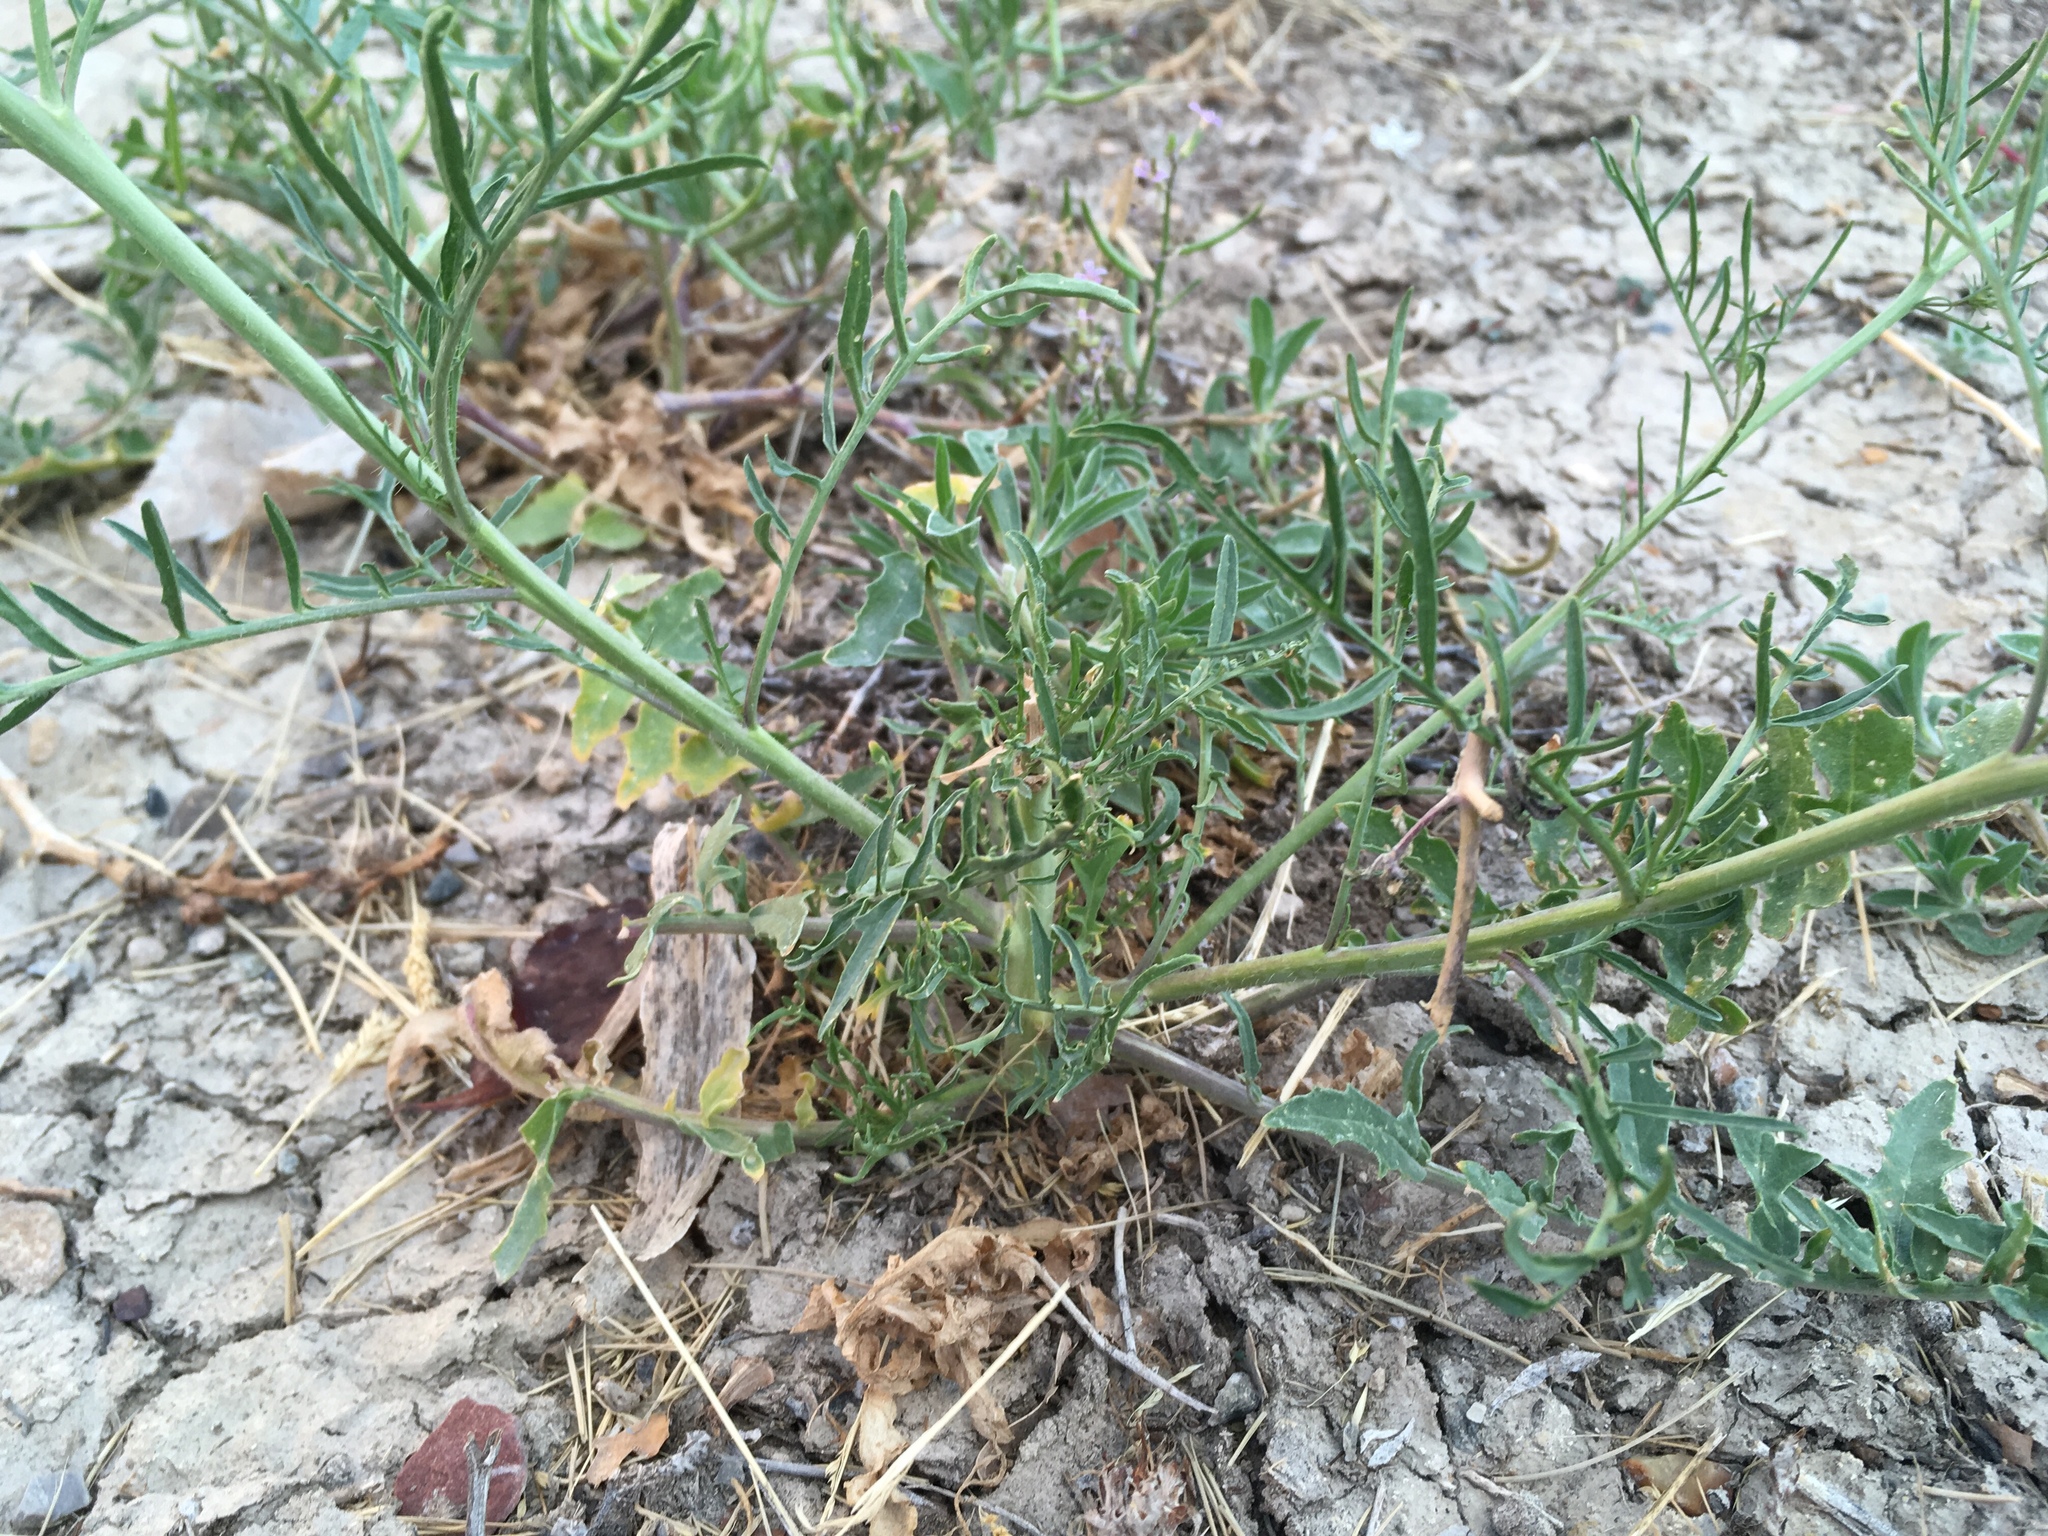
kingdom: Plantae
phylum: Tracheophyta
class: Magnoliopsida
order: Brassicales
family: Brassicaceae
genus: Sisymbrium
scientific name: Sisymbrium altissimum
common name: Tall rocket
